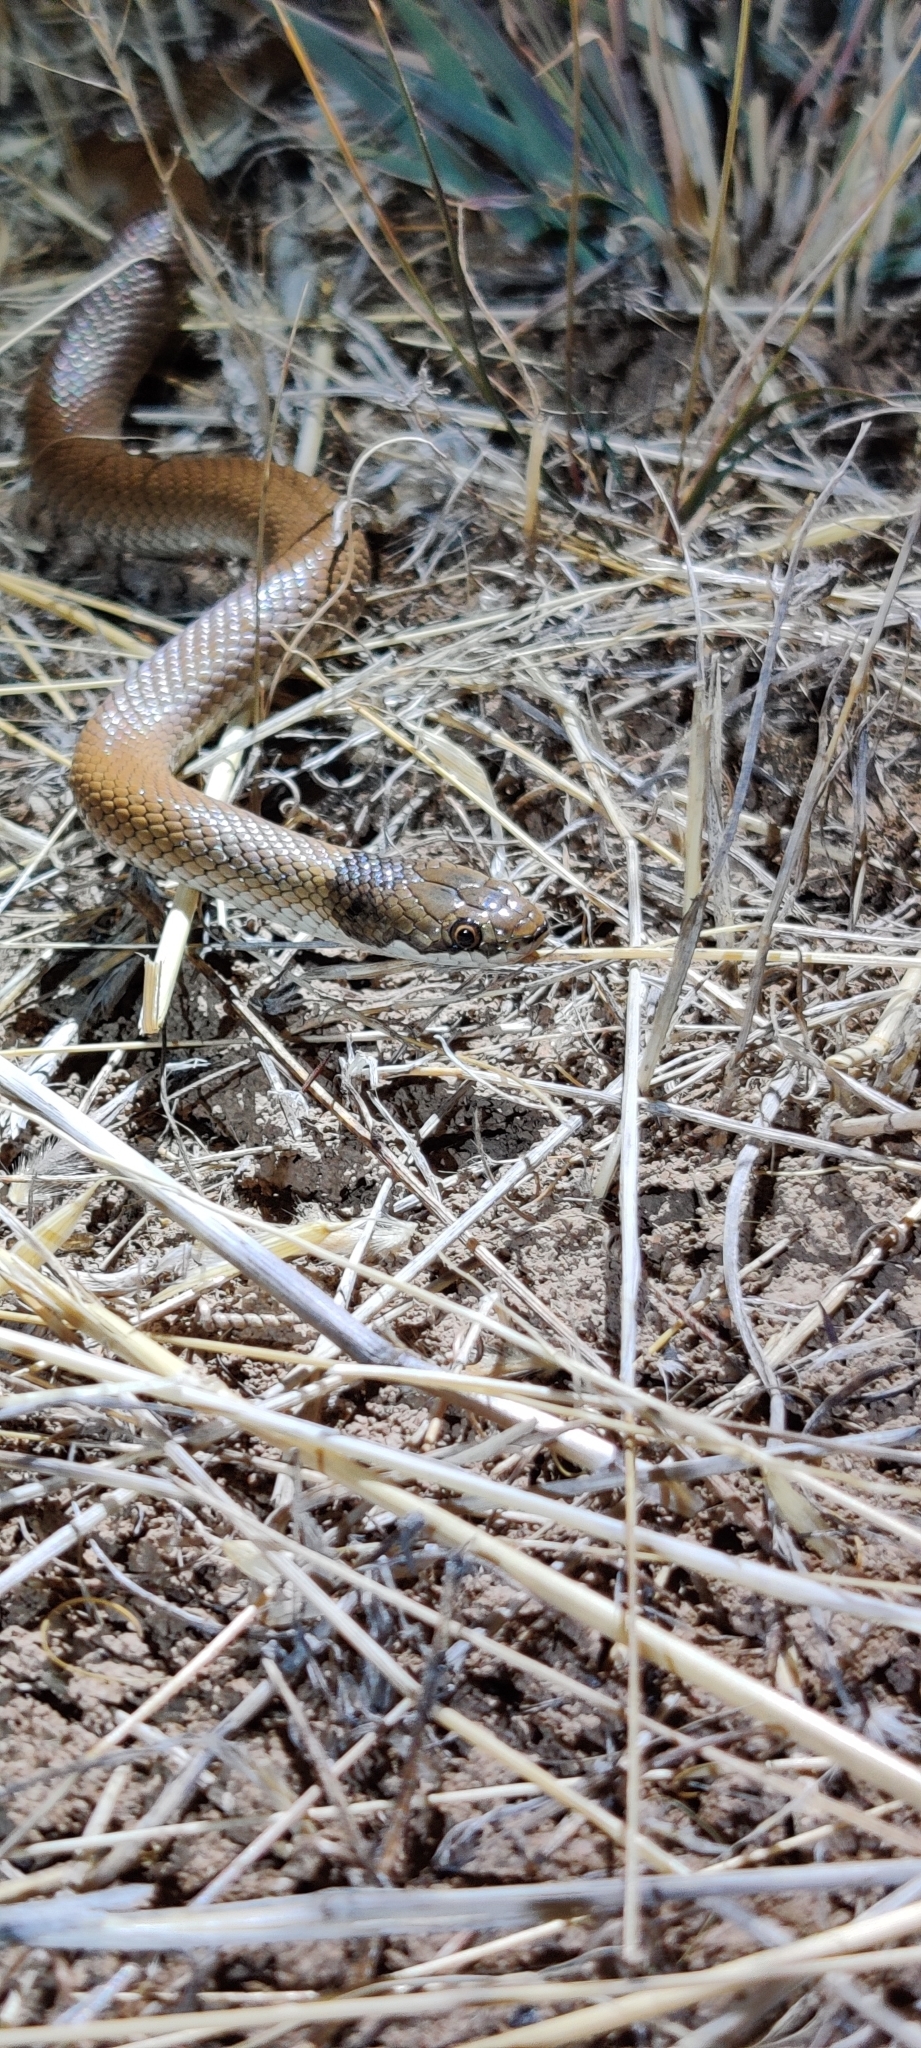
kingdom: Animalia
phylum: Chordata
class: Squamata
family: Elapidae
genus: Suta
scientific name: Suta suta
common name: Curl snake
